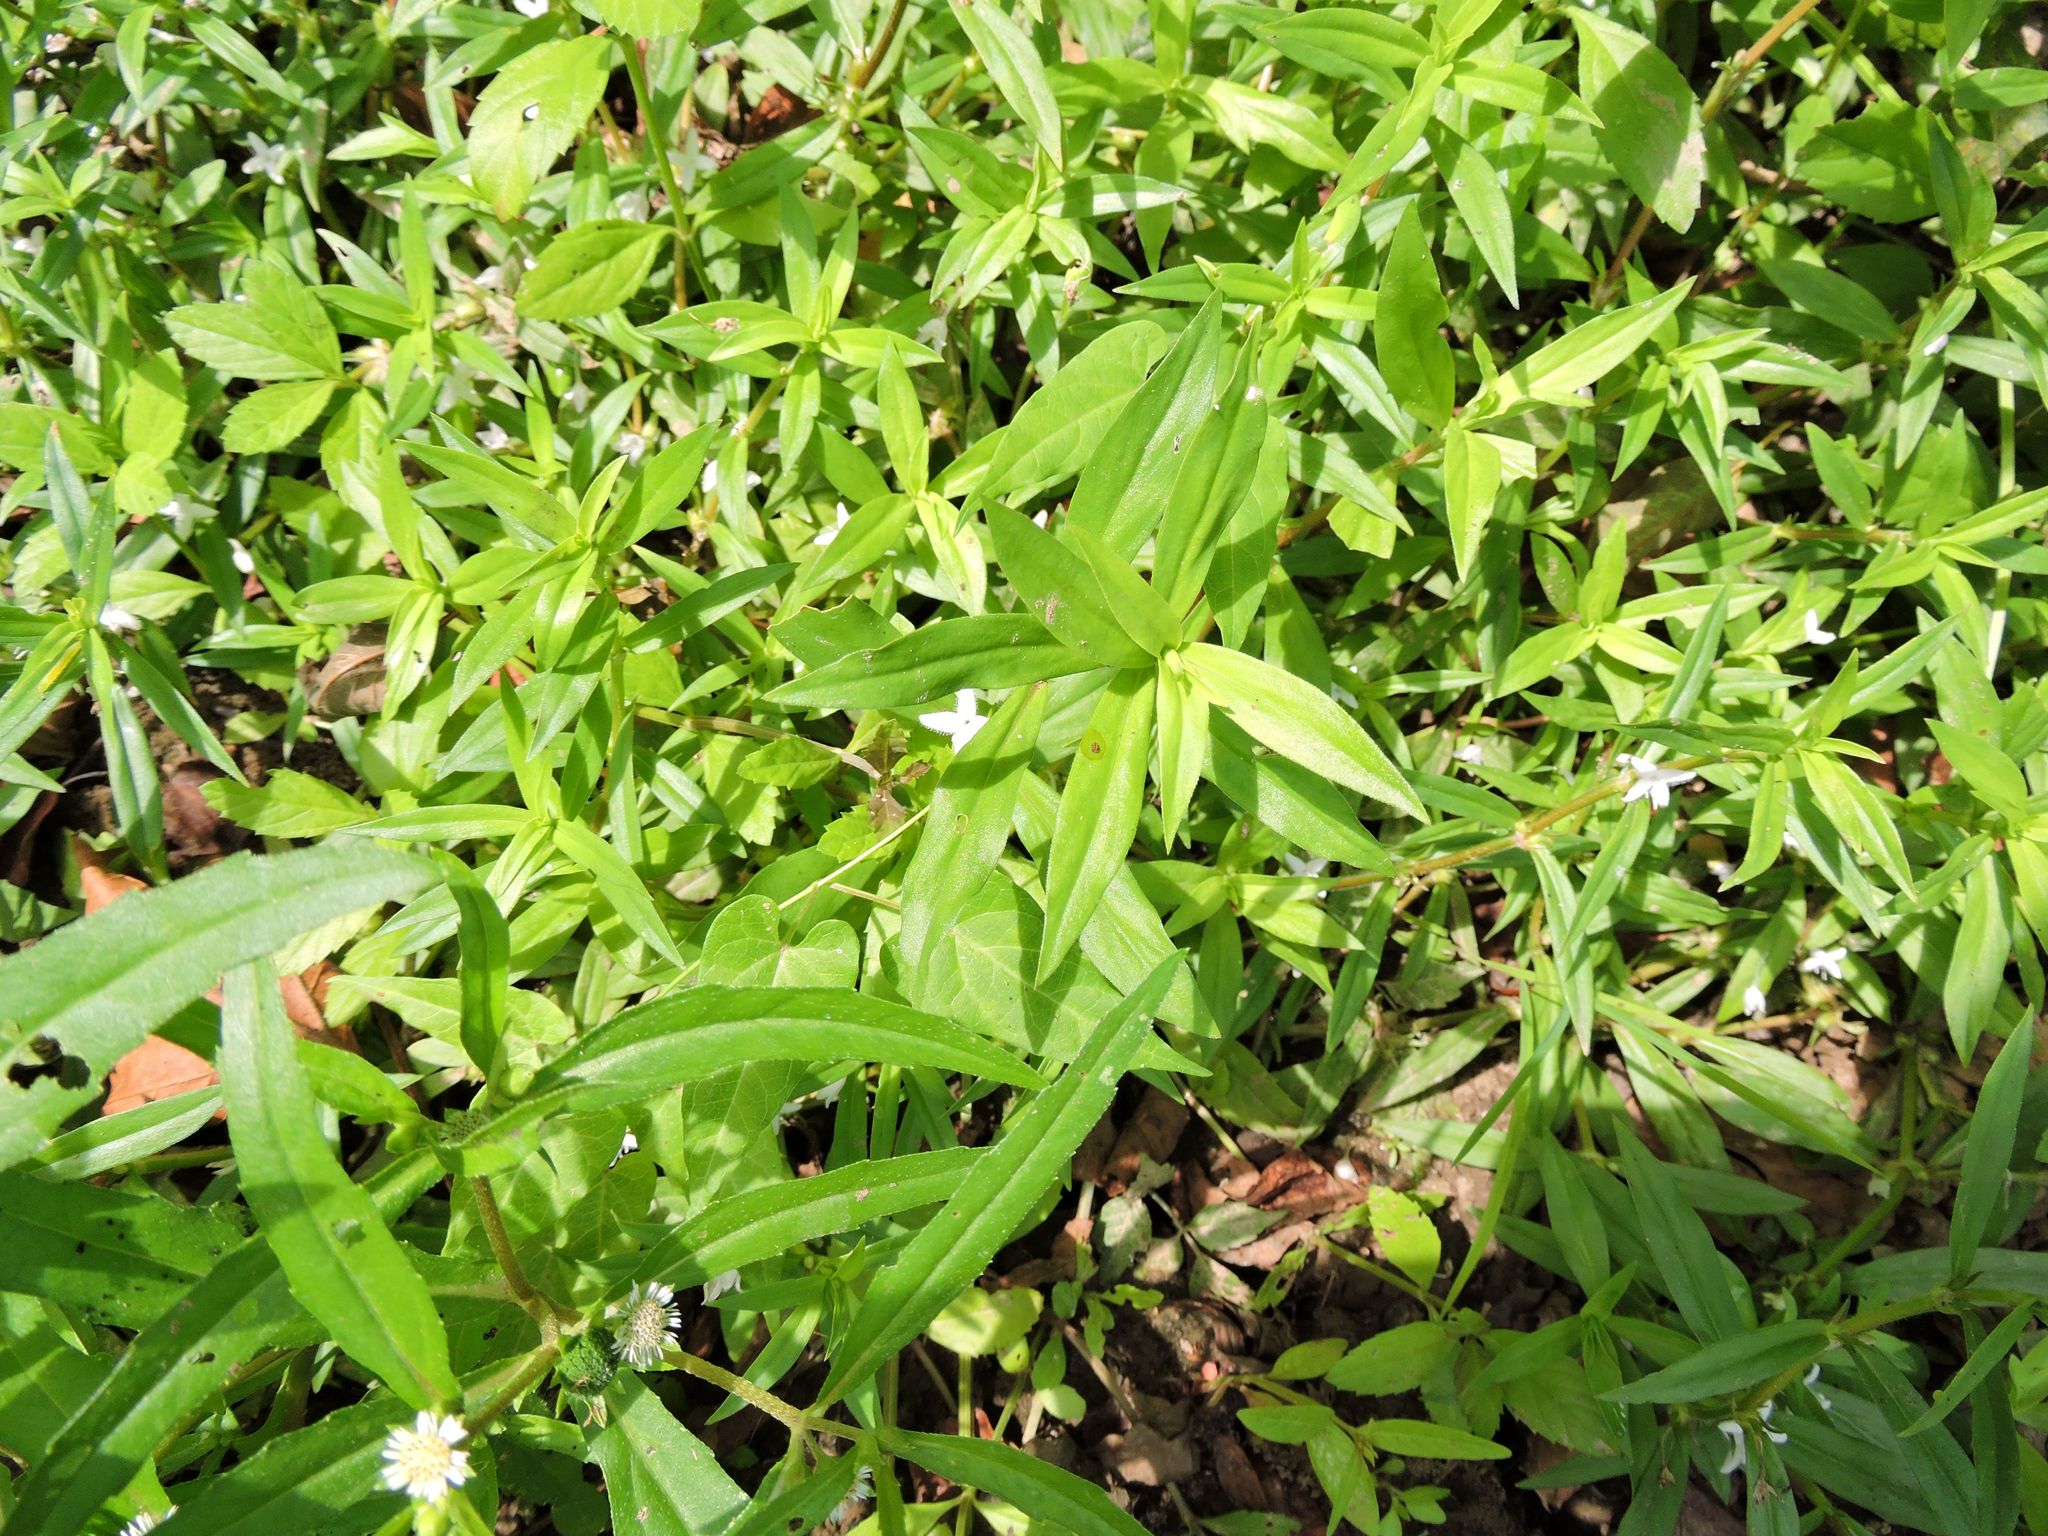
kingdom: Plantae
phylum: Tracheophyta
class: Magnoliopsida
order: Gentianales
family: Rubiaceae
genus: Diodia
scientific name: Diodia virginiana
